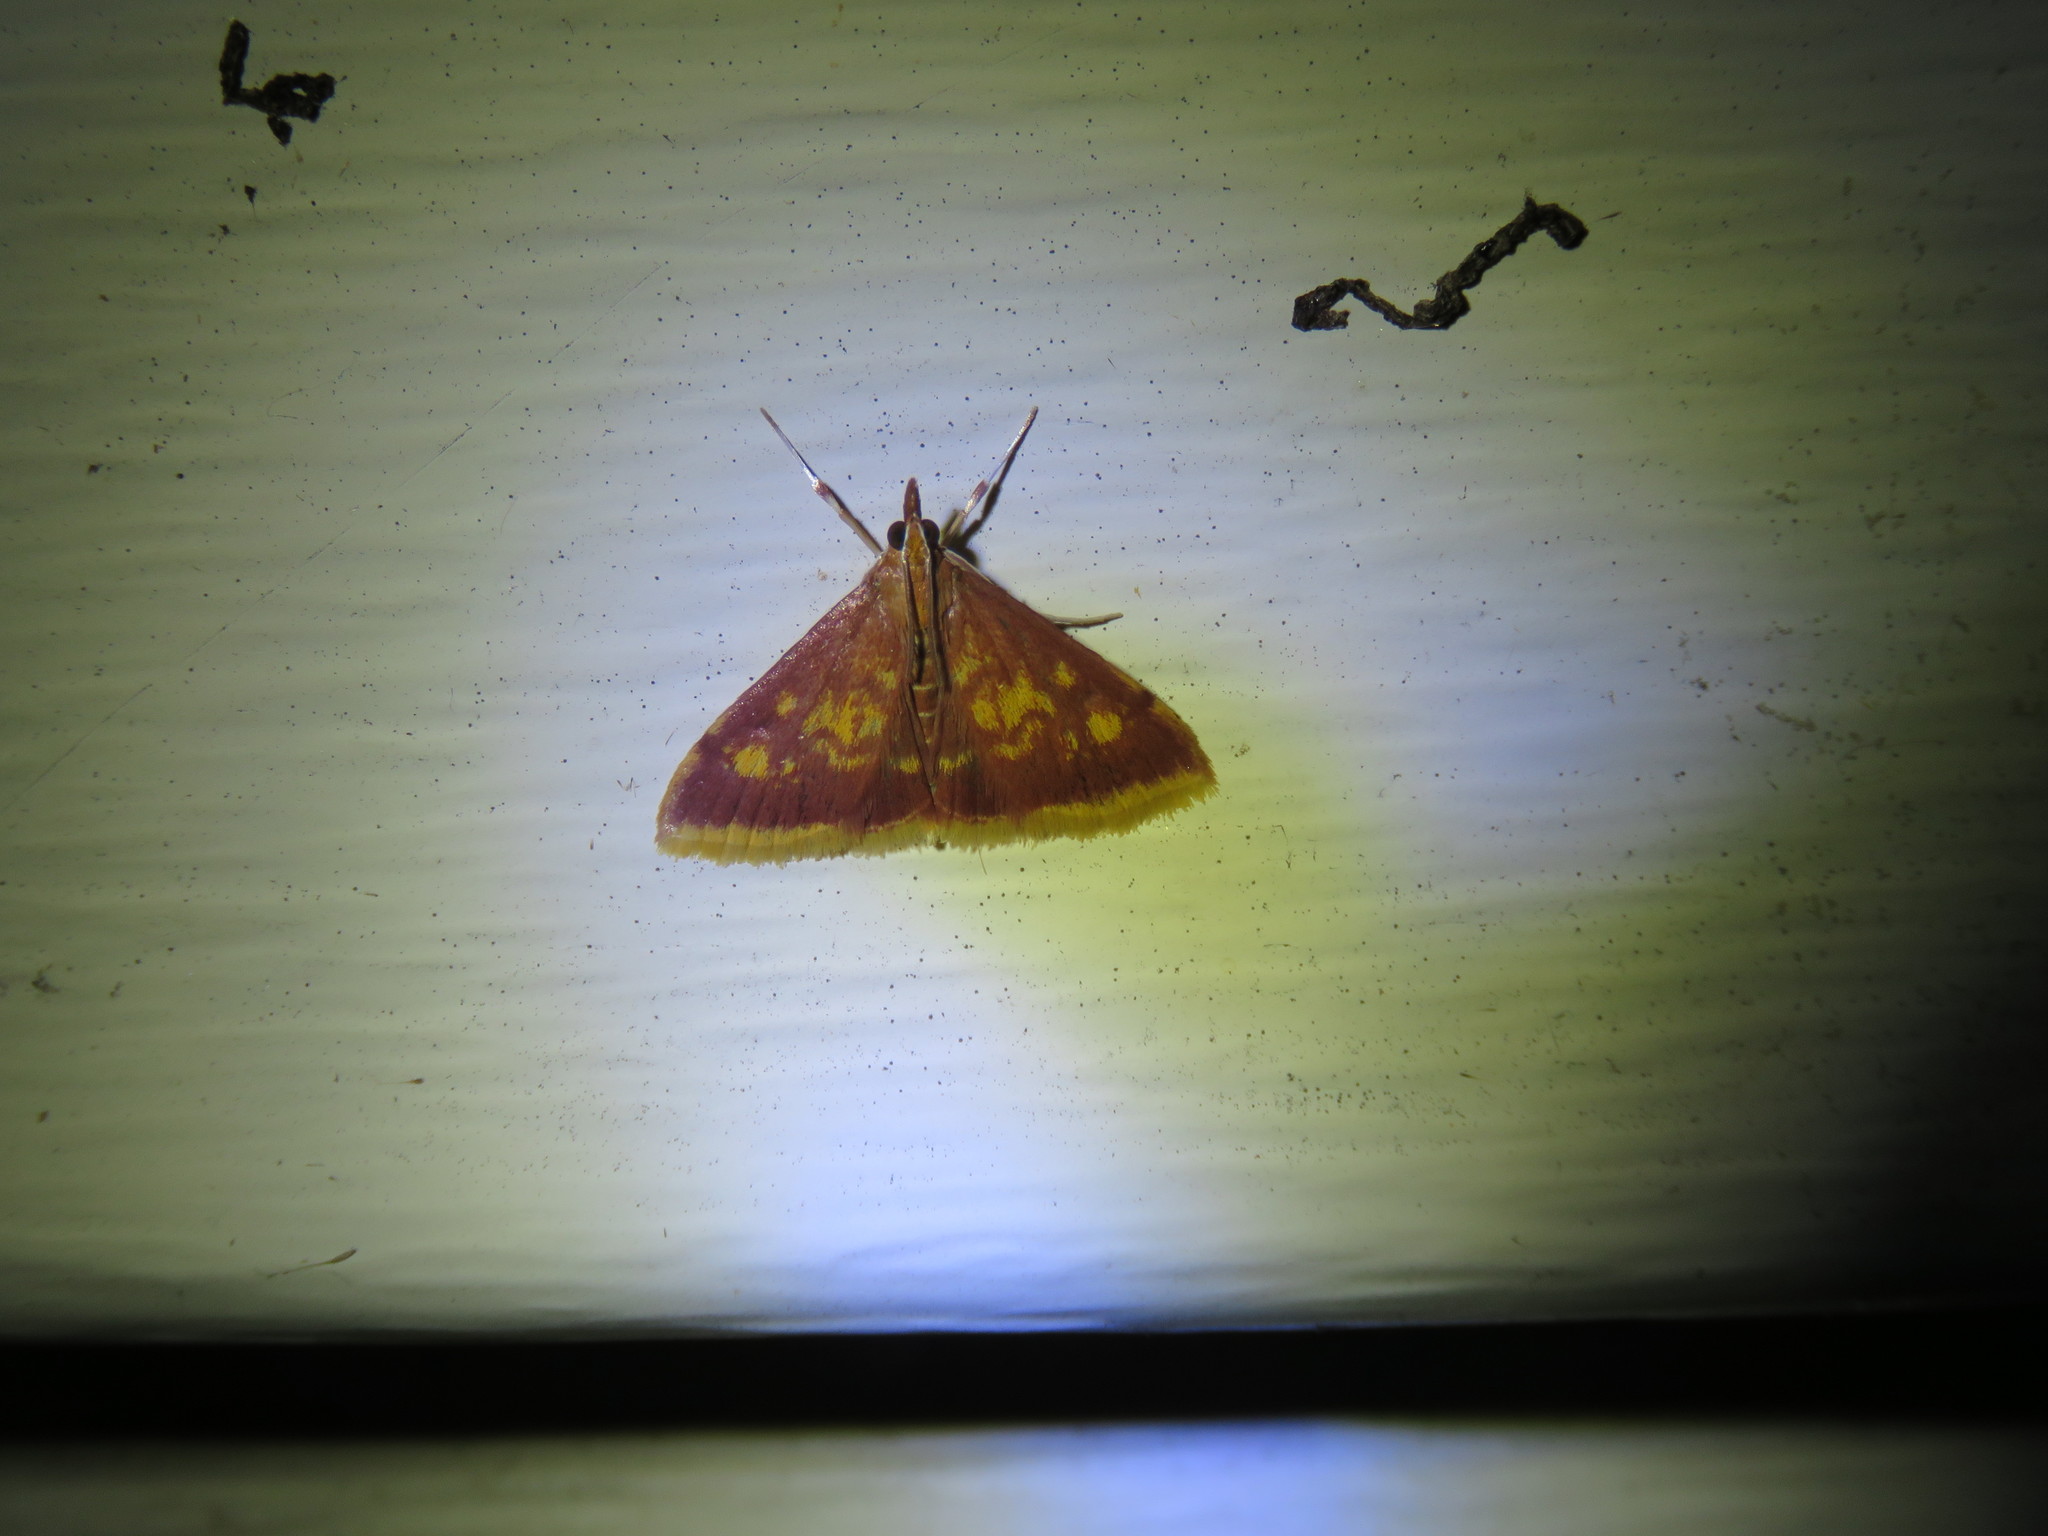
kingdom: Animalia
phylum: Arthropoda
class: Insecta
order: Lepidoptera
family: Crambidae
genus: Pyrausta
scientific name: Pyrausta acrionalis
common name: Mint-loving pyrausta moth
